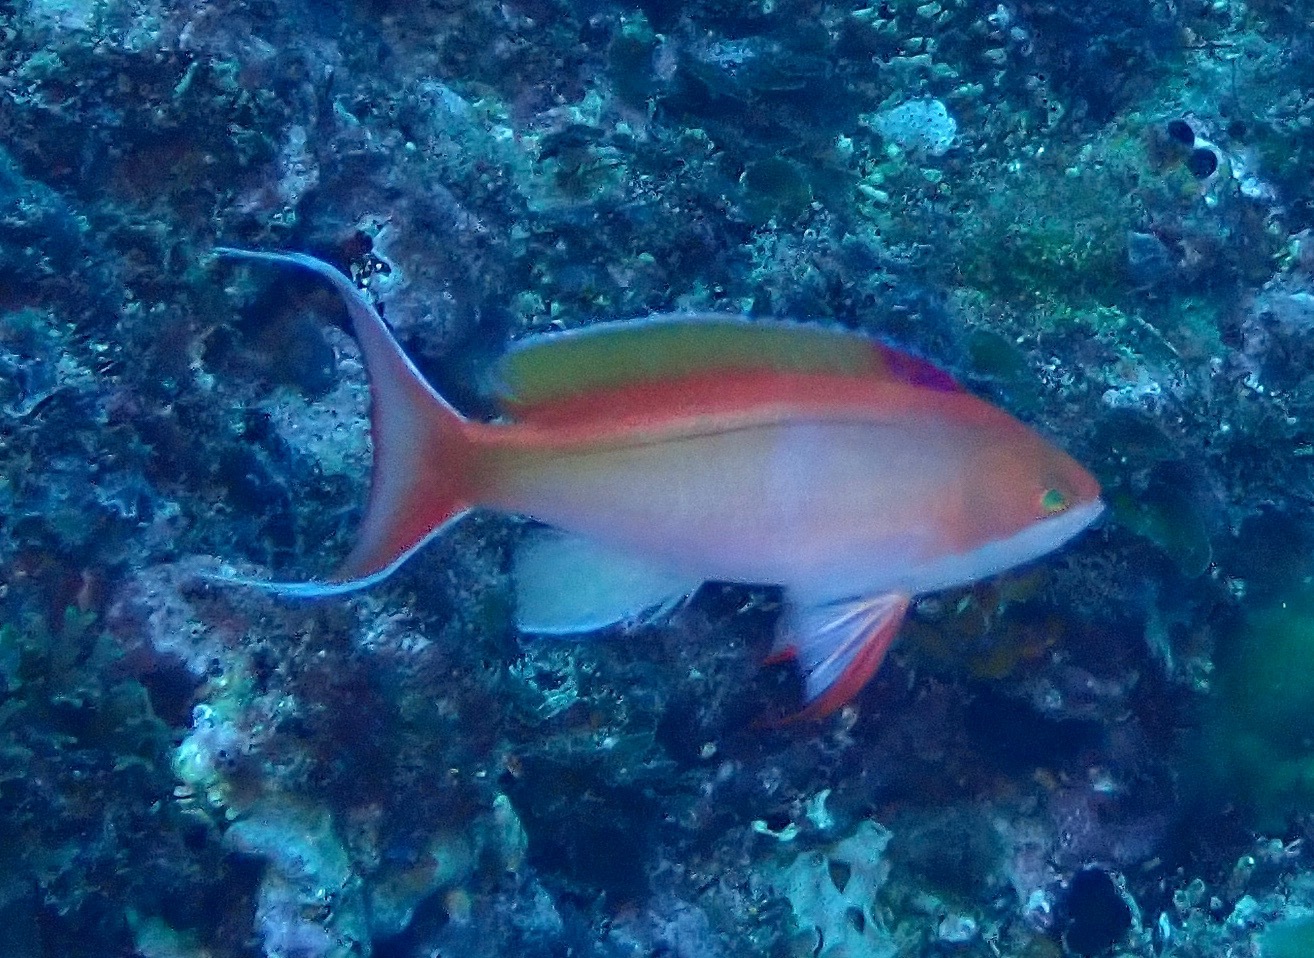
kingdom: Animalia
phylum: Chordata
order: Perciformes
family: Serranidae
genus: Pseudanthias
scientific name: Pseudanthias cooperi
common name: Red basslet
